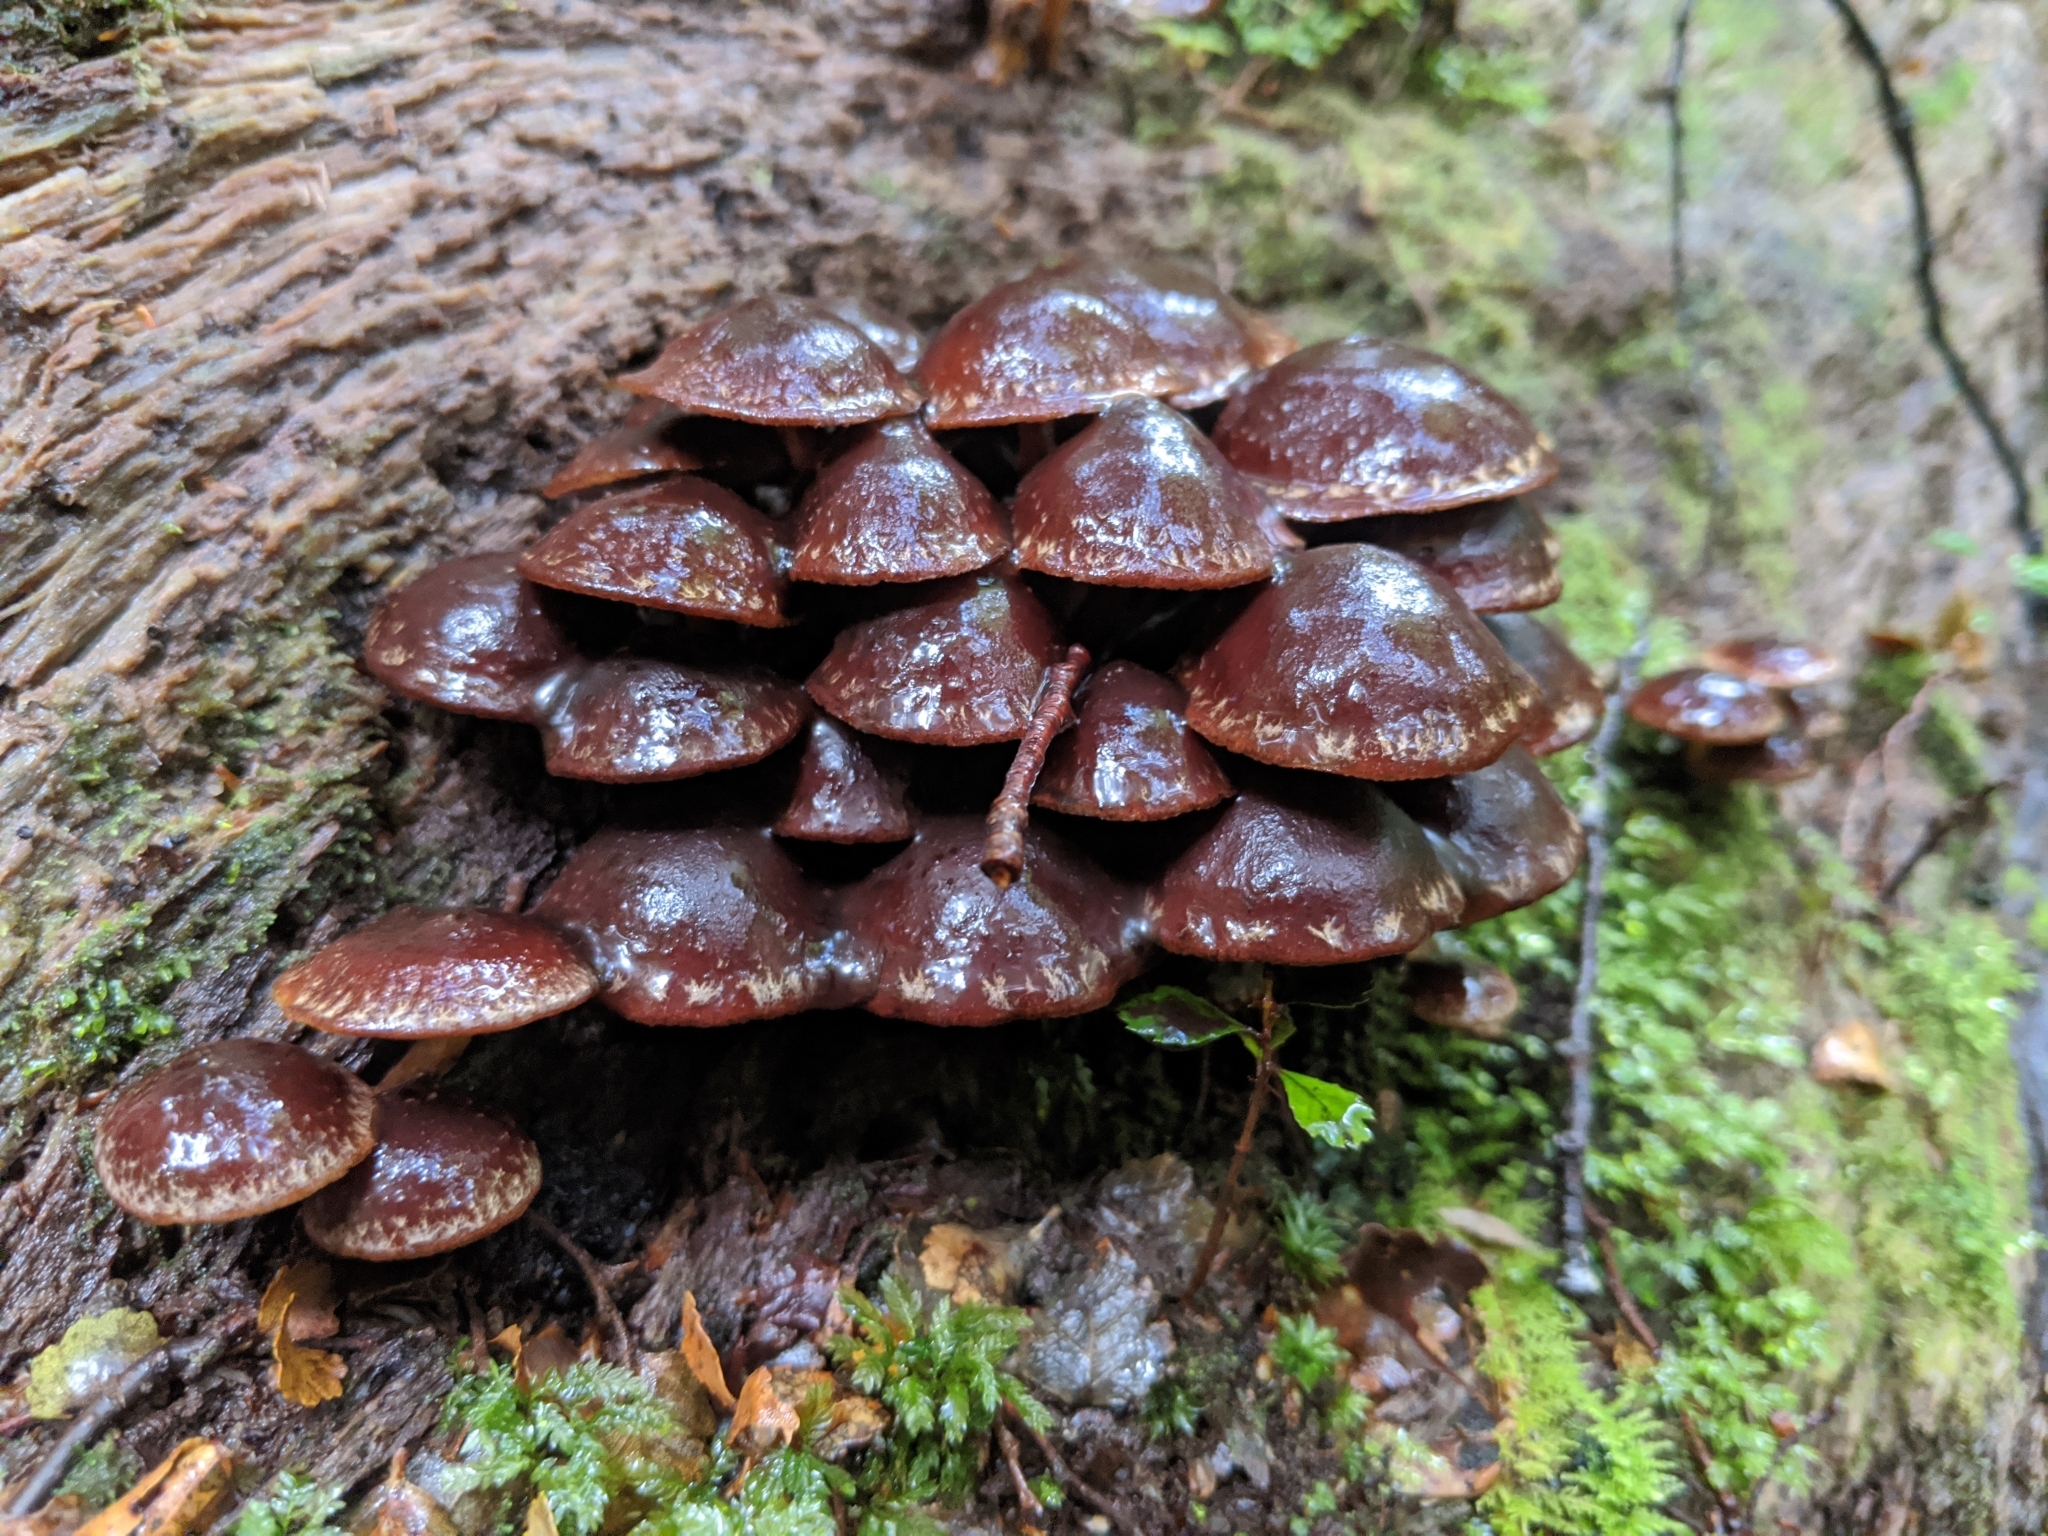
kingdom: Fungi
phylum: Basidiomycota
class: Agaricomycetes
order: Agaricales
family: Strophariaceae
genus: Hypholoma
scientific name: Hypholoma brunneum
